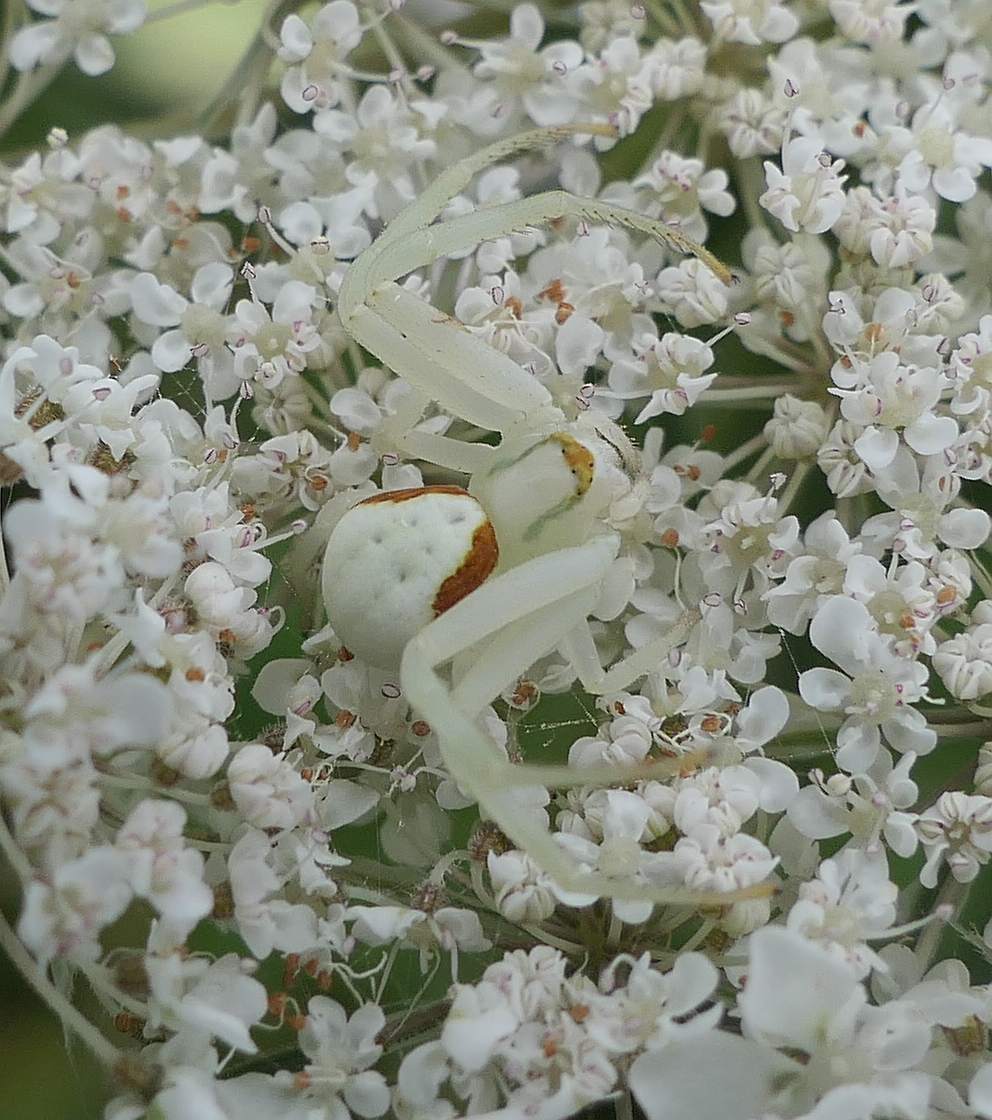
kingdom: Animalia
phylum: Arthropoda
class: Arachnida
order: Araneae
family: Thomisidae
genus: Misumena
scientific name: Misumena vatia
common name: Goldenrod crab spider
